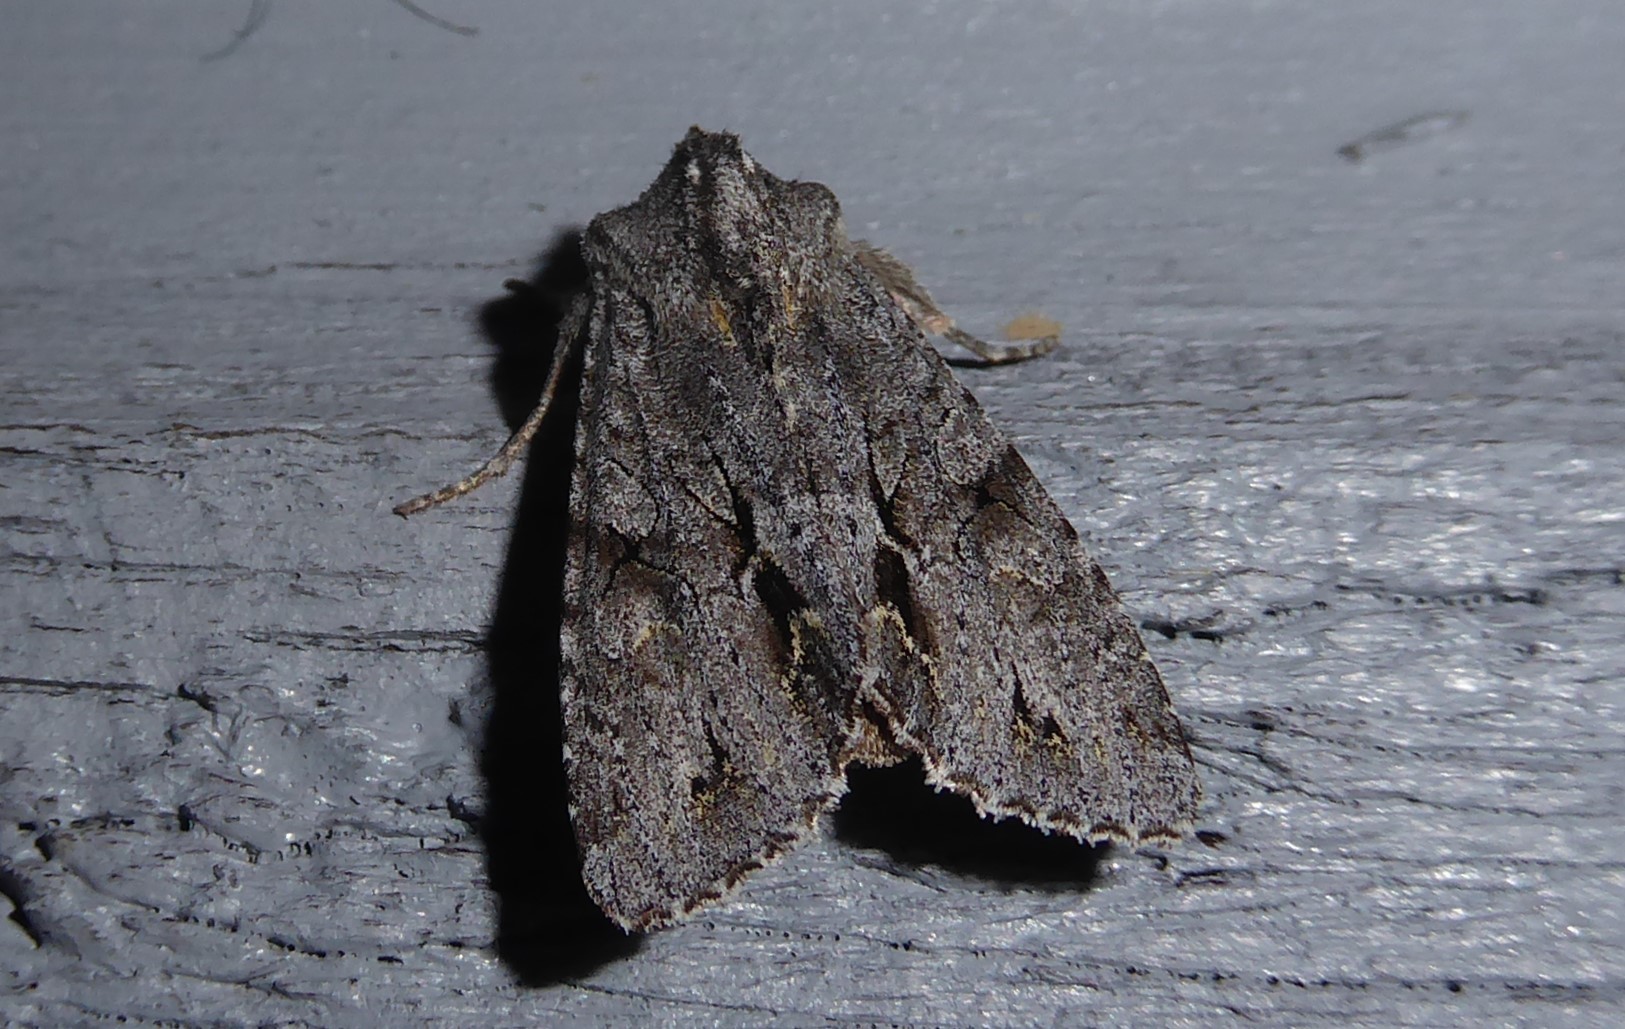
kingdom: Animalia
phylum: Arthropoda
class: Insecta
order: Lepidoptera
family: Noctuidae
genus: Ichneutica
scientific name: Ichneutica
